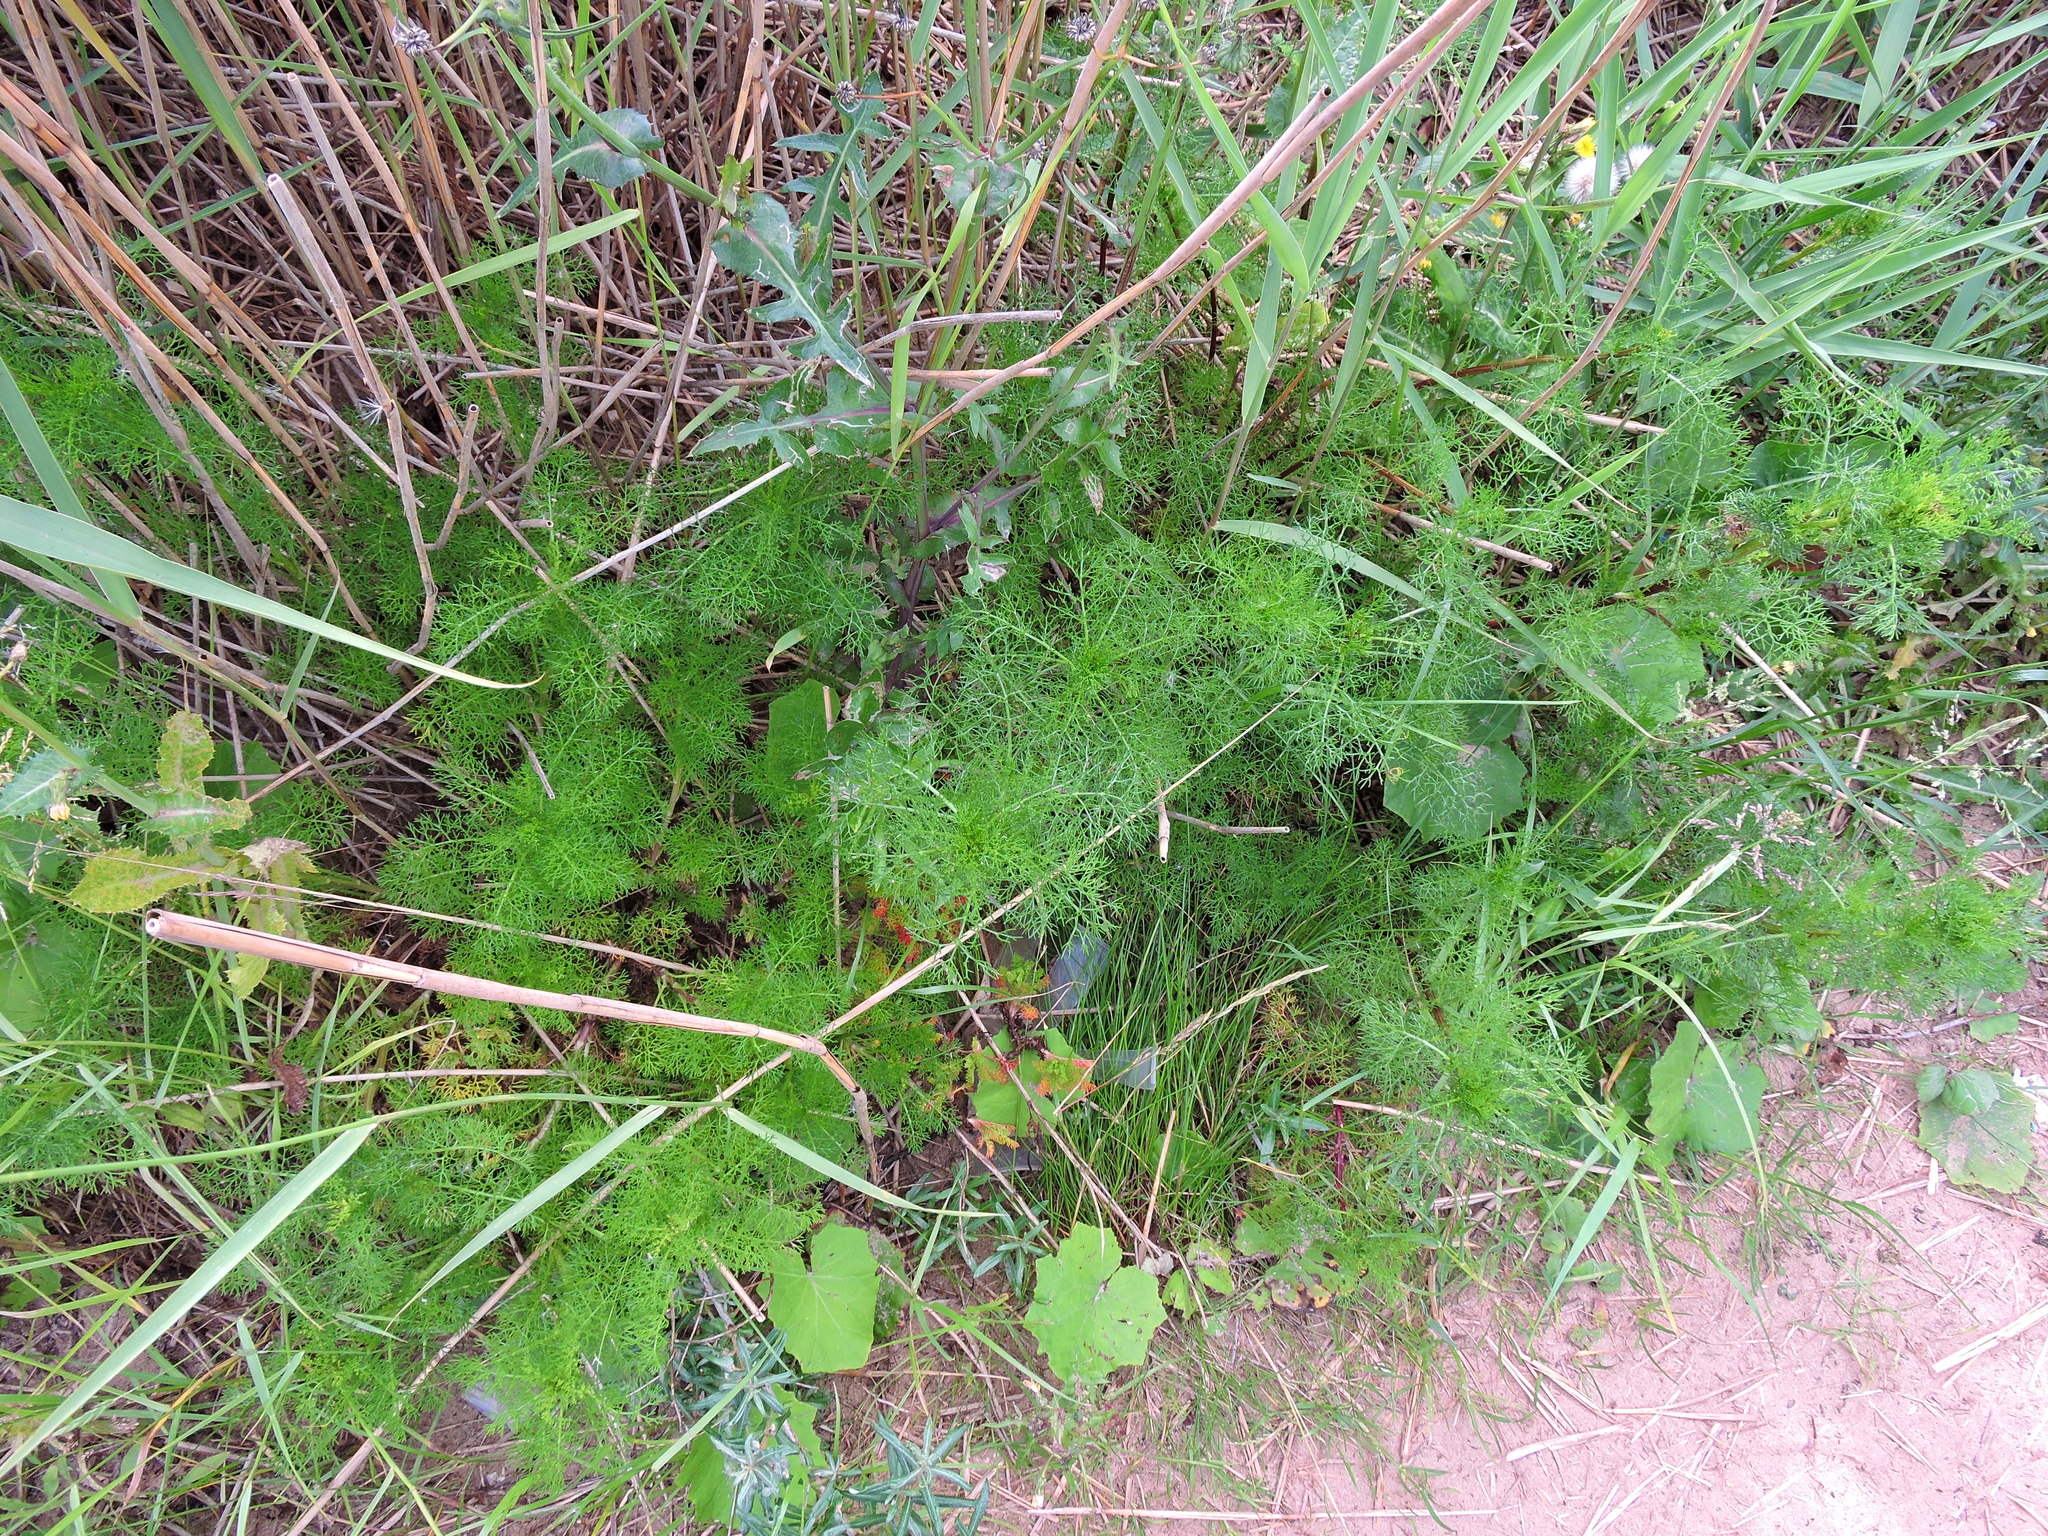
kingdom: Plantae
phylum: Tracheophyta
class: Magnoliopsida
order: Asterales
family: Asteraceae
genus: Tripleurospermum
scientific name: Tripleurospermum maritimum
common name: Sea mayweed
